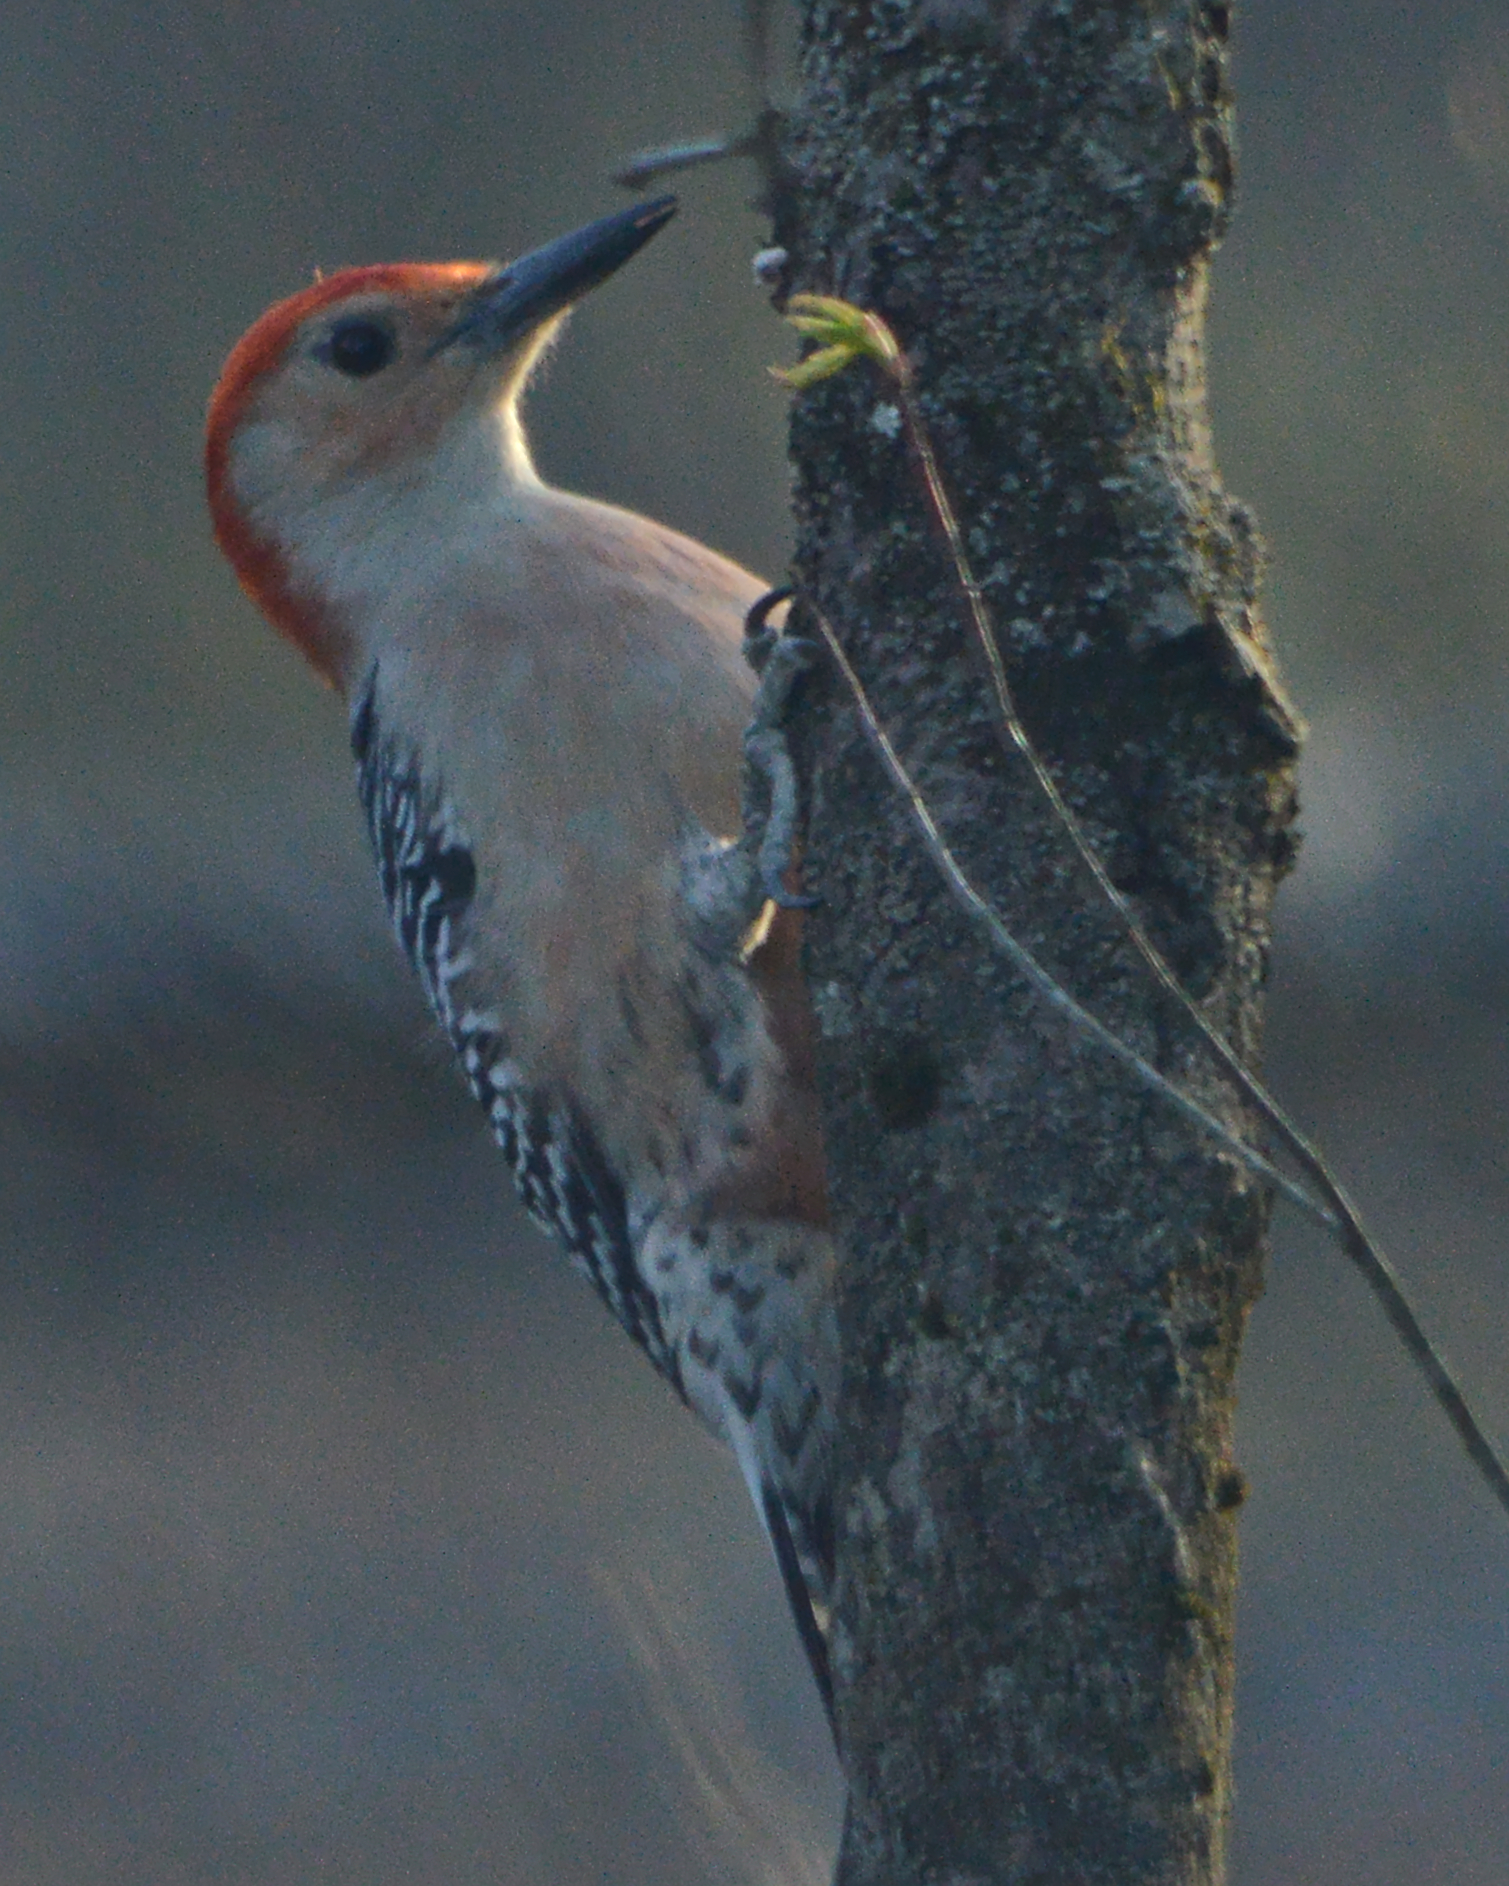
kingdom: Animalia
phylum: Chordata
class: Aves
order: Piciformes
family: Picidae
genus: Melanerpes
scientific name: Melanerpes carolinus
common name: Red-bellied woodpecker
